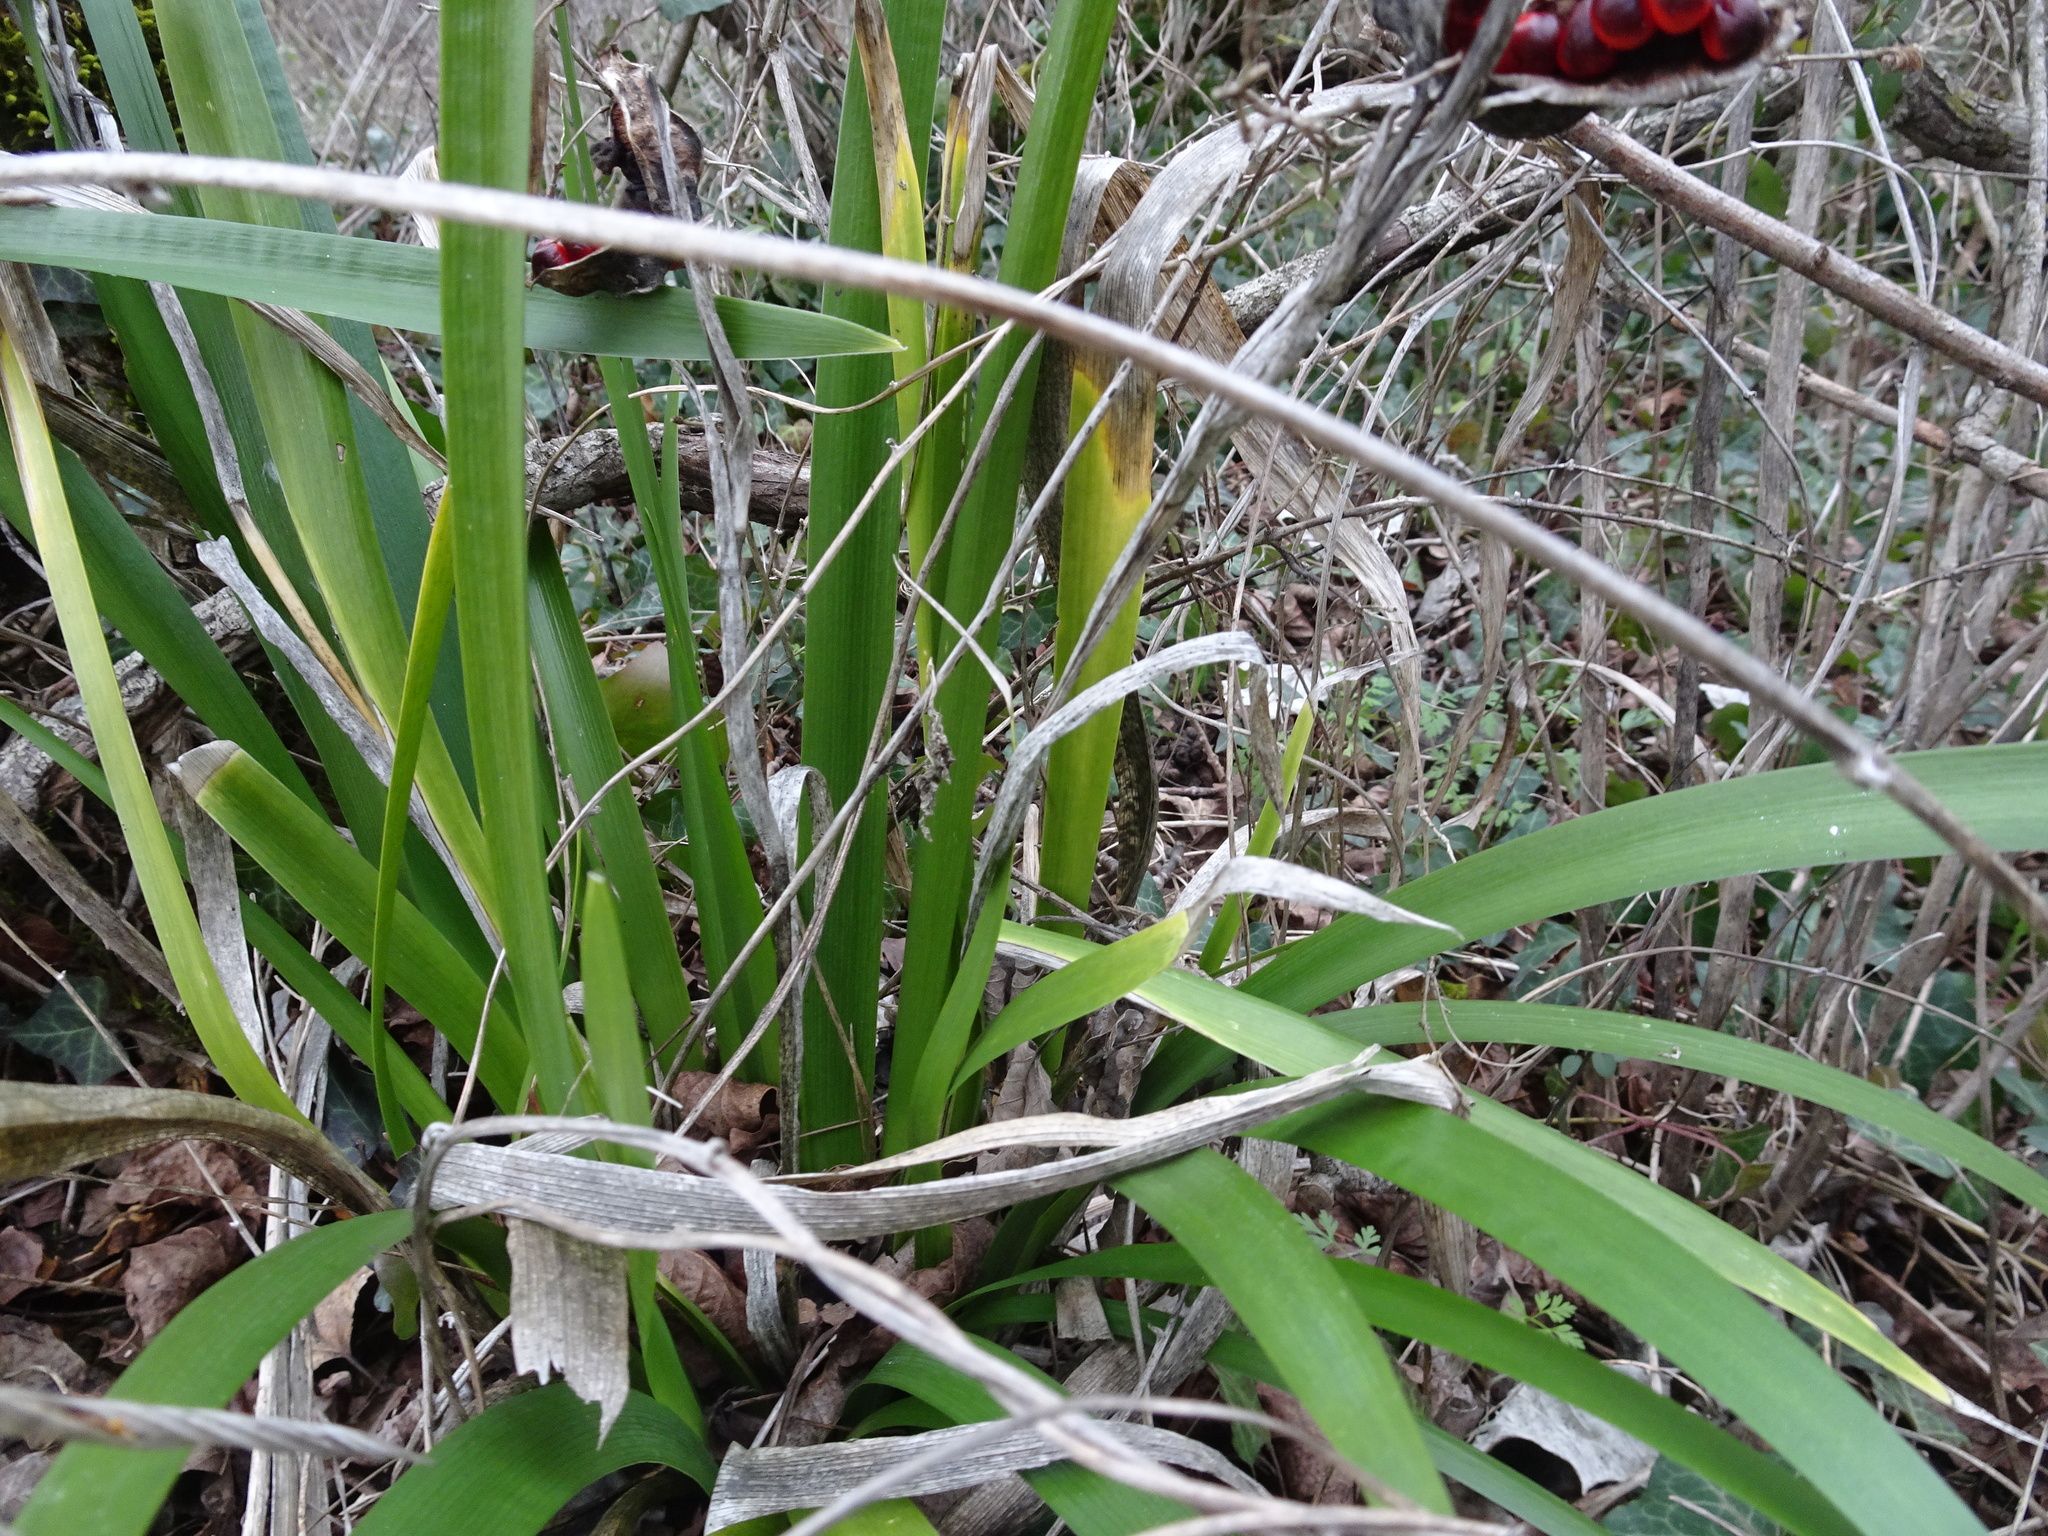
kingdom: Plantae
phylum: Tracheophyta
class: Liliopsida
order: Asparagales
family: Iridaceae
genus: Iris
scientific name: Iris foetidissima
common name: Stinking iris
